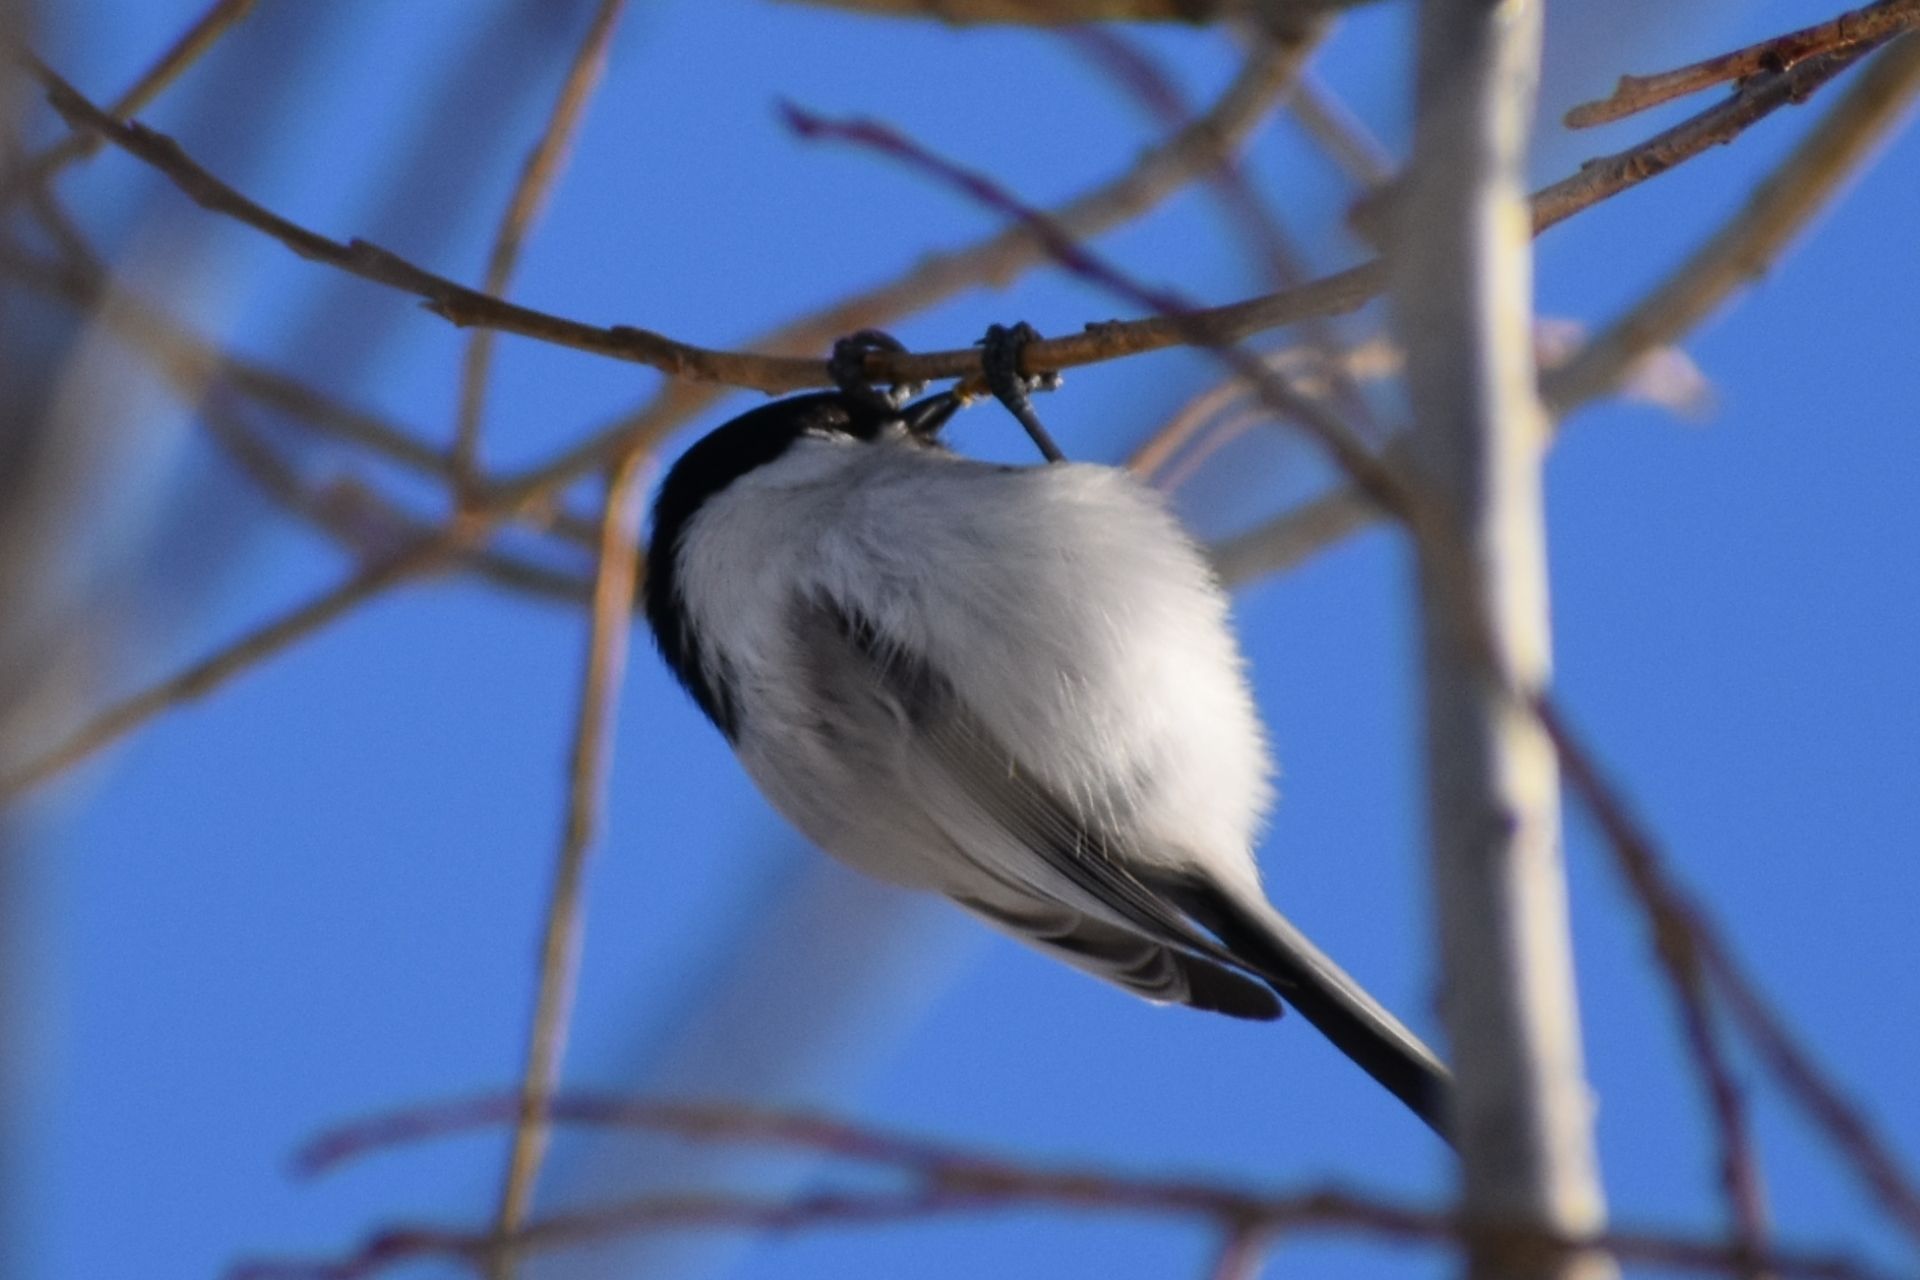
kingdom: Animalia
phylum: Chordata
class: Aves
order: Passeriformes
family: Paridae
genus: Poecile
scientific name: Poecile montanus
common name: Willow tit
